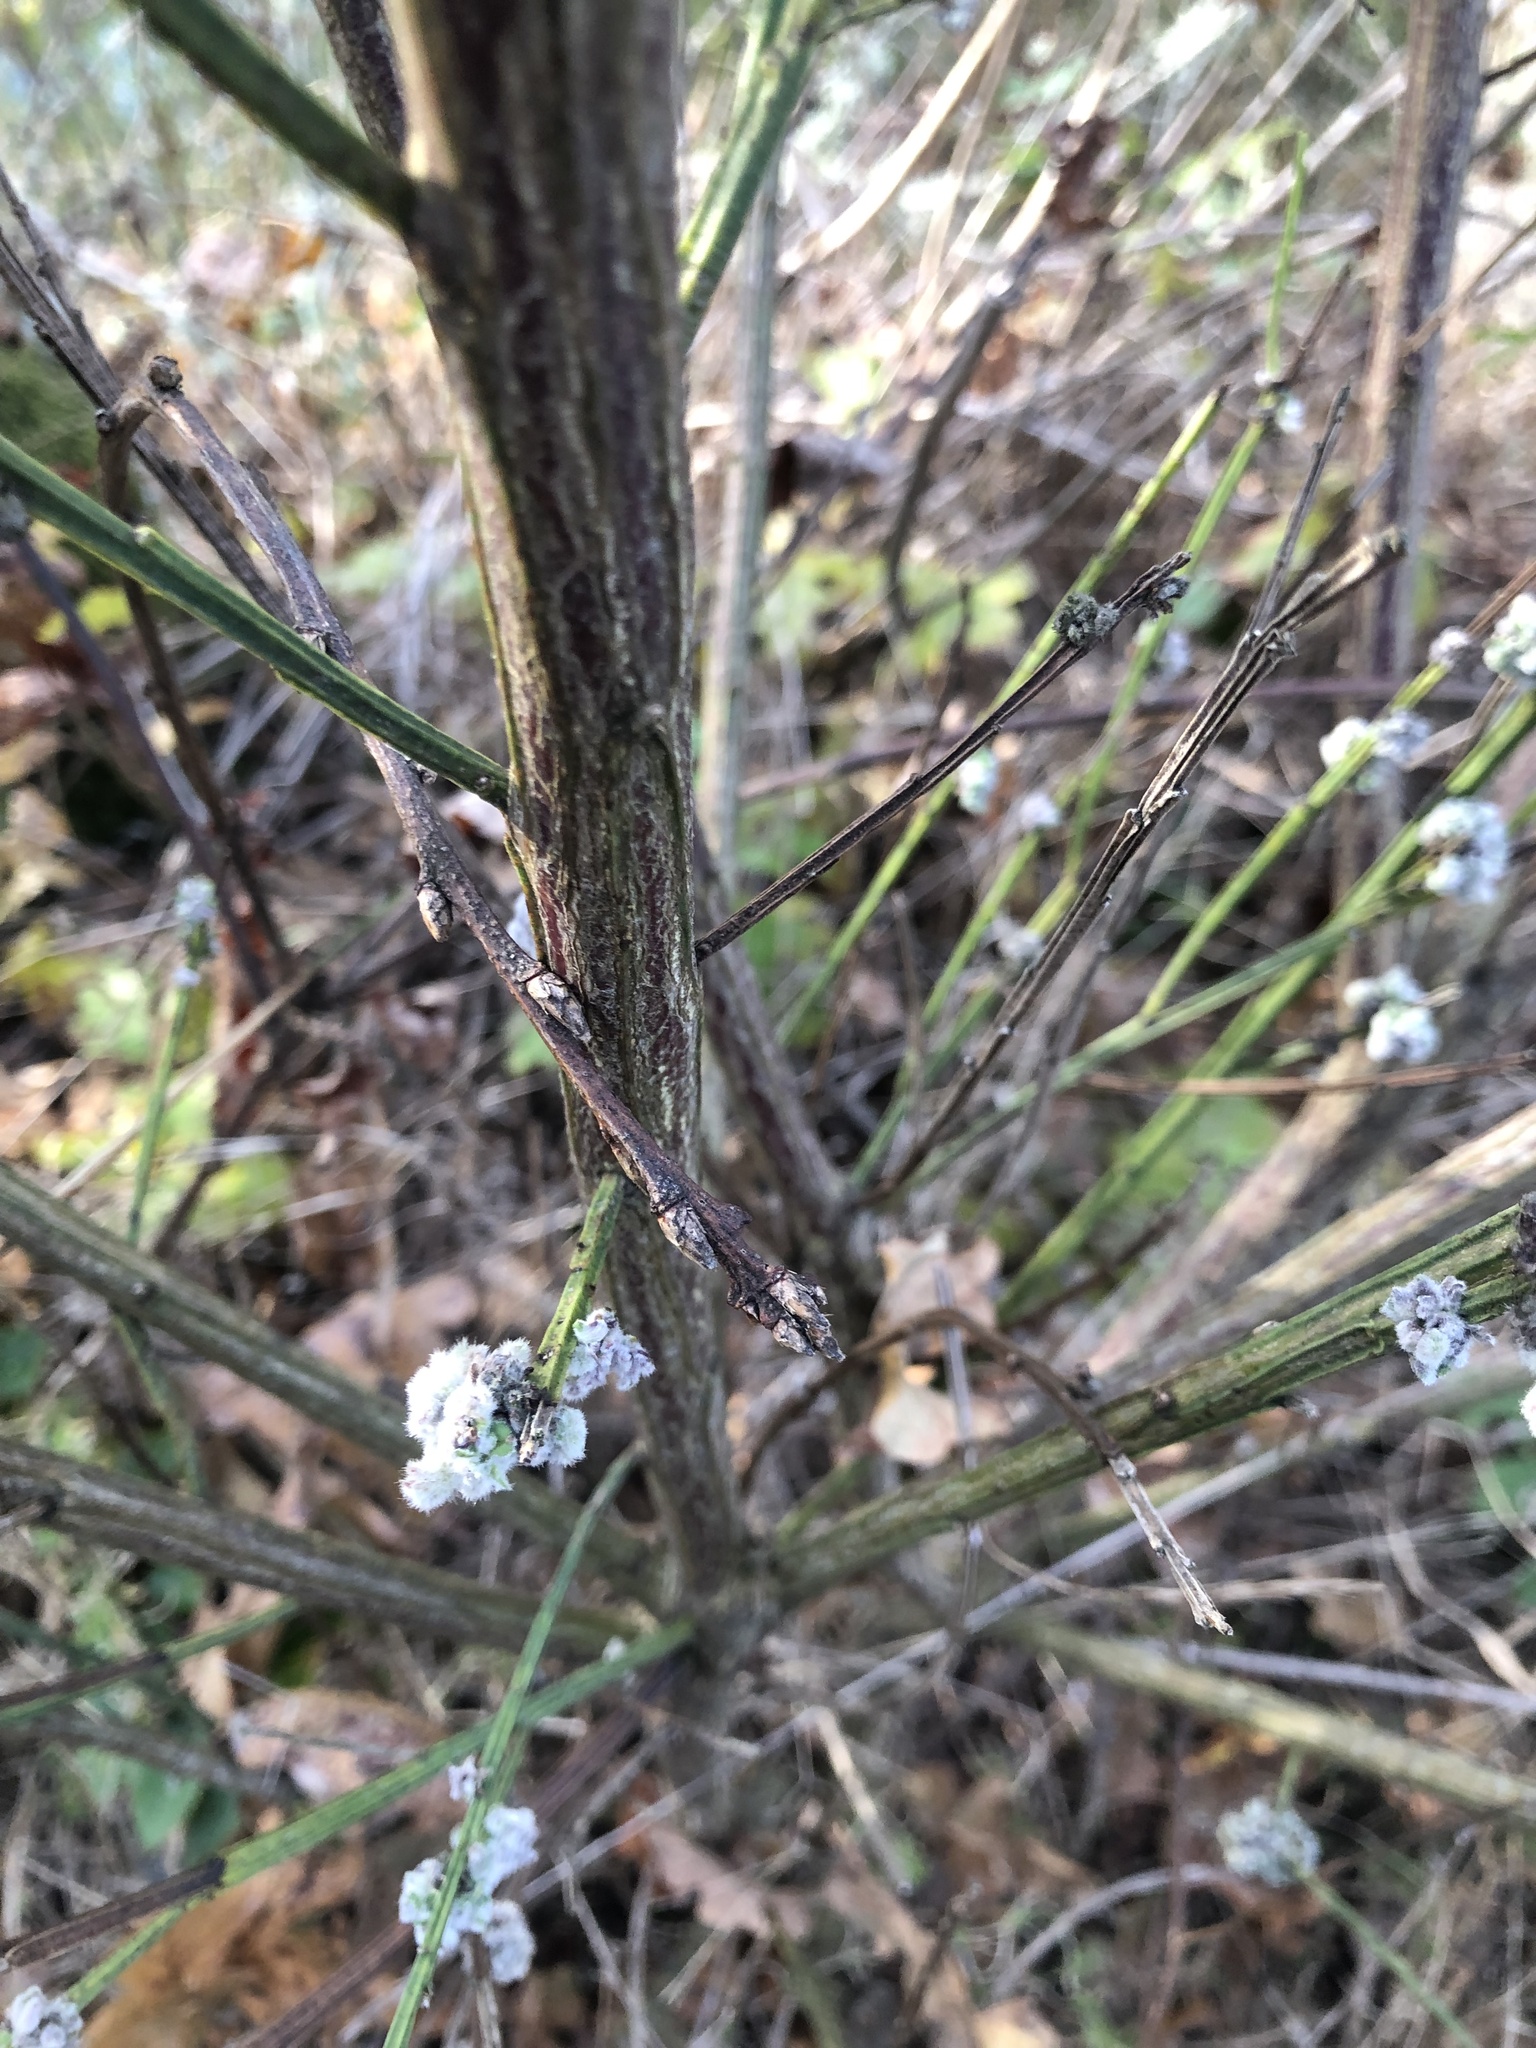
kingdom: Animalia
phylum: Arthropoda
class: Arachnida
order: Trombidiformes
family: Eriophyidae
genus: Aceria
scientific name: Aceria genistae
